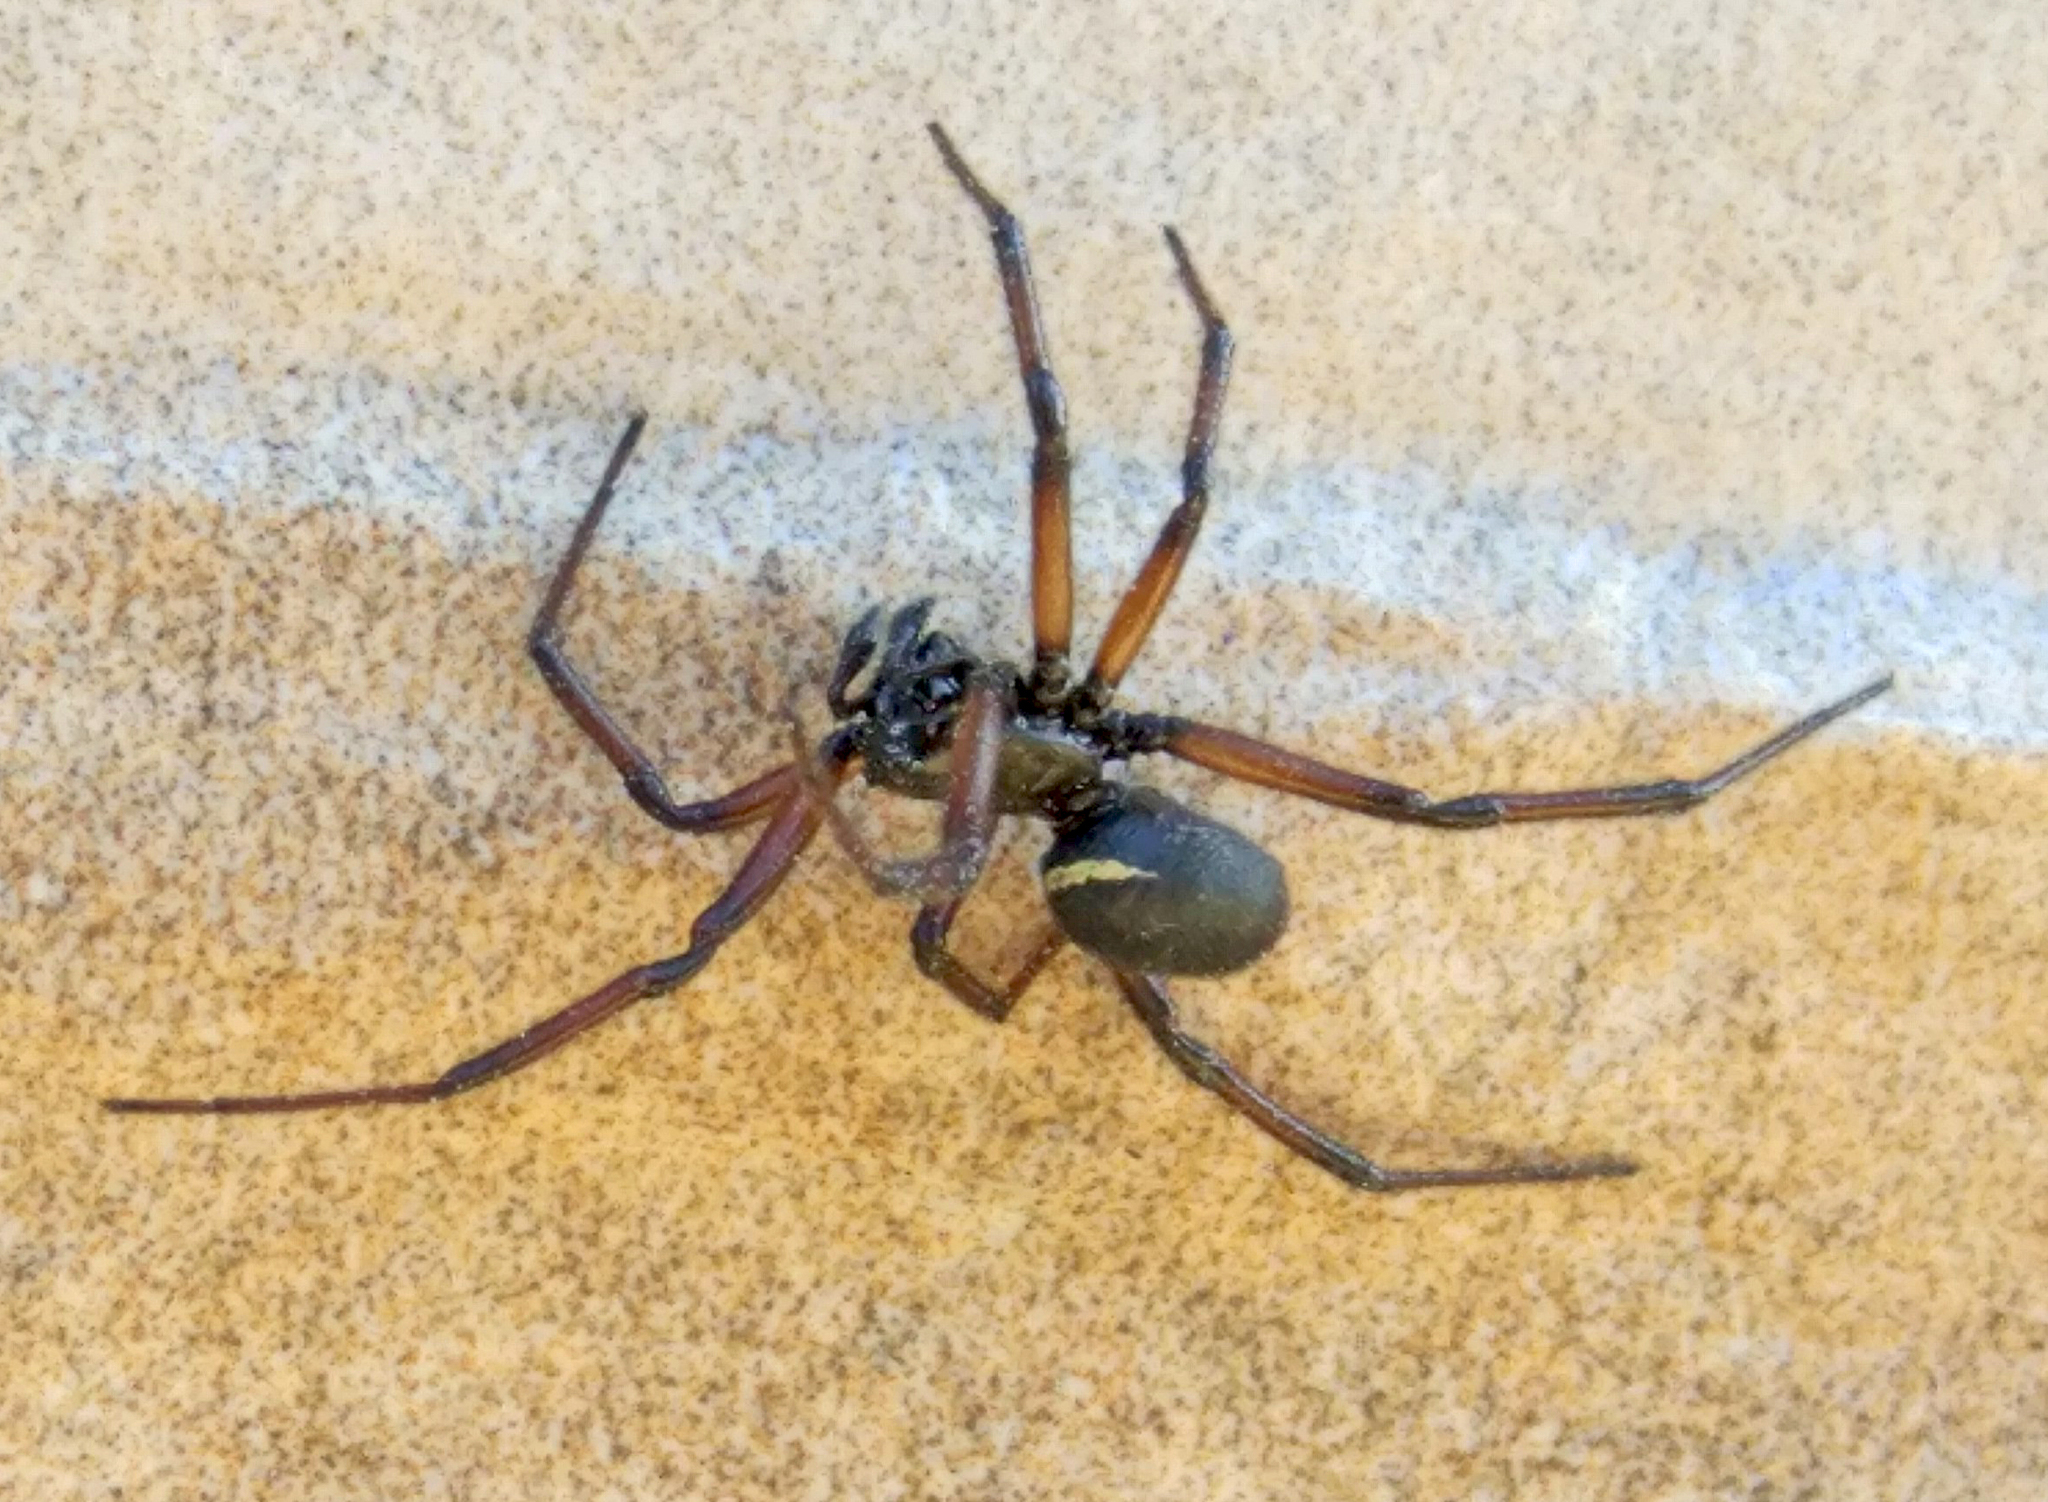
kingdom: Animalia
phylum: Arthropoda
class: Arachnida
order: Araneae
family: Theridiidae
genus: Steatoda
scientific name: Steatoda paykulliana
